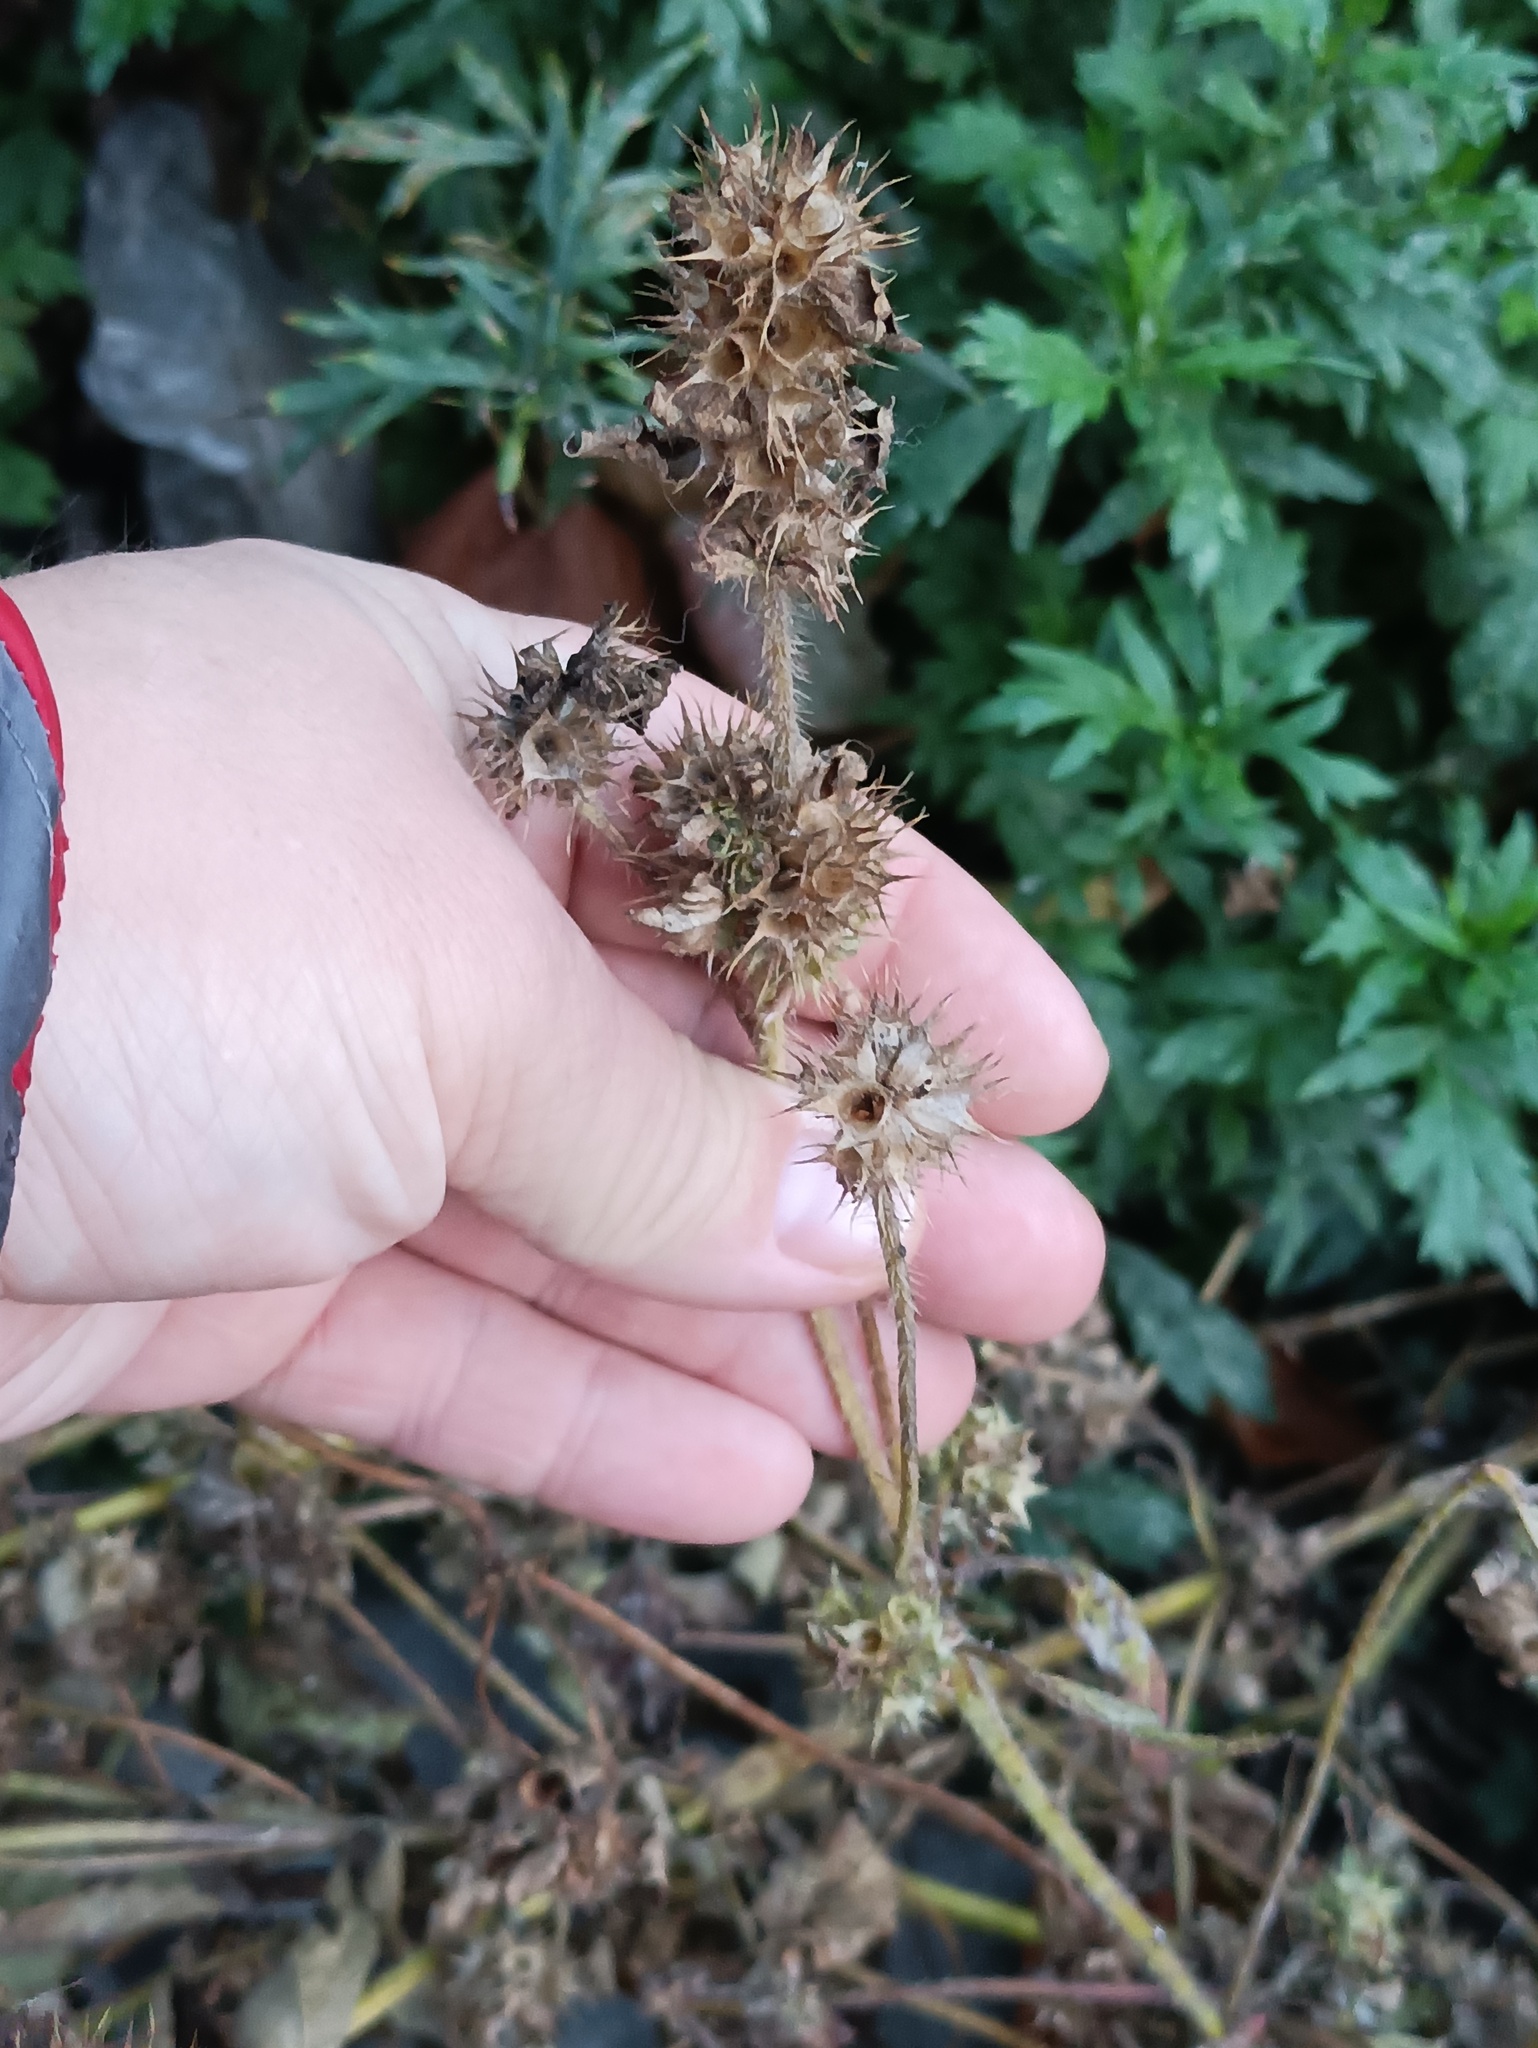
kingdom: Plantae
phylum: Tracheophyta
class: Magnoliopsida
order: Lamiales
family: Lamiaceae
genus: Galeopsis
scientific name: Galeopsis bifida
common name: Bifid hemp-nettle
